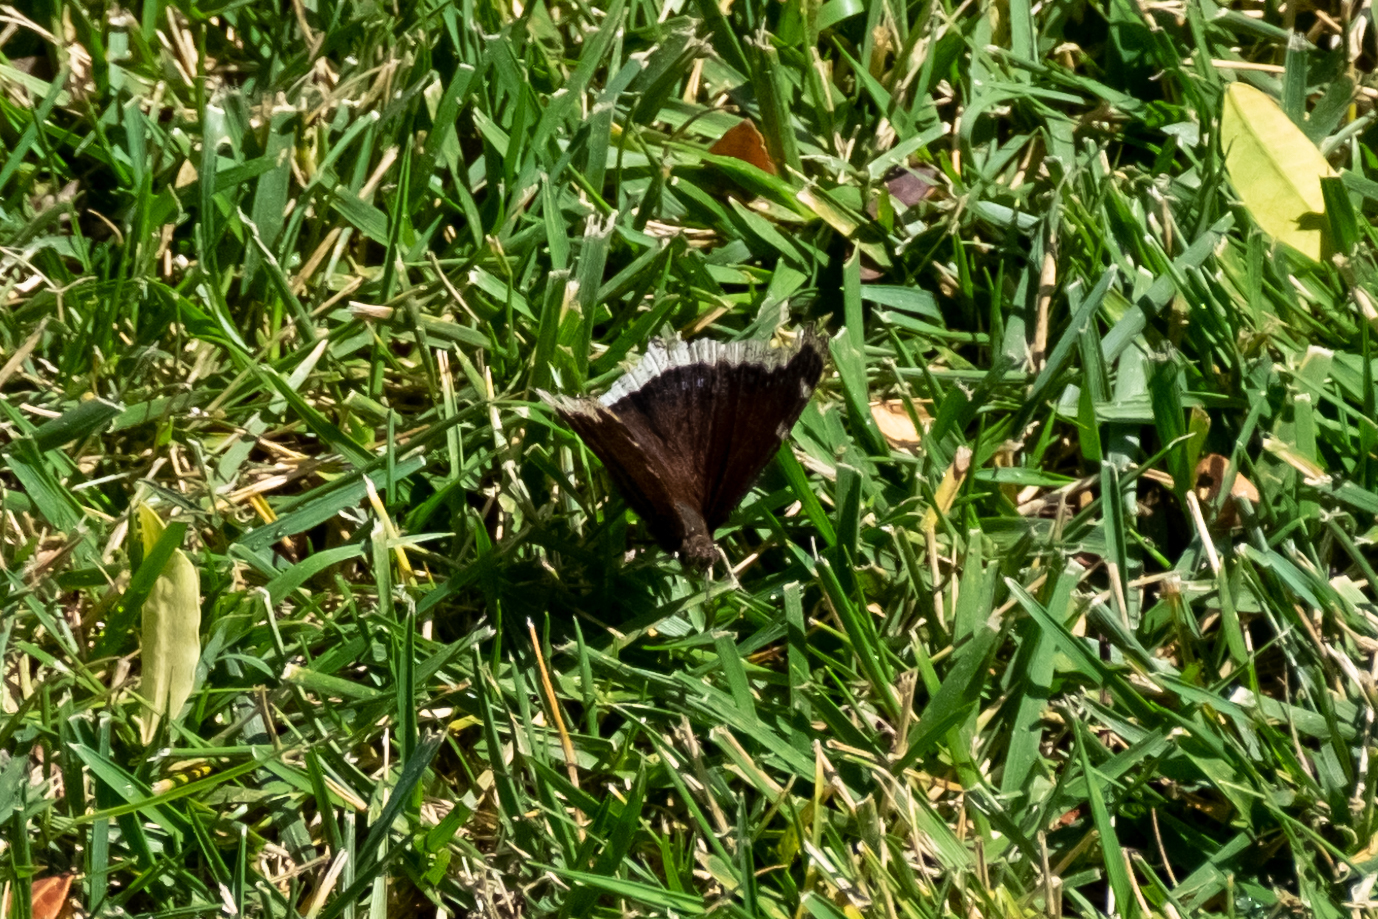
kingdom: Animalia
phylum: Arthropoda
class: Insecta
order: Lepidoptera
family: Nymphalidae
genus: Nymphalis
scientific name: Nymphalis antiopa
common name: Camberwell beauty
